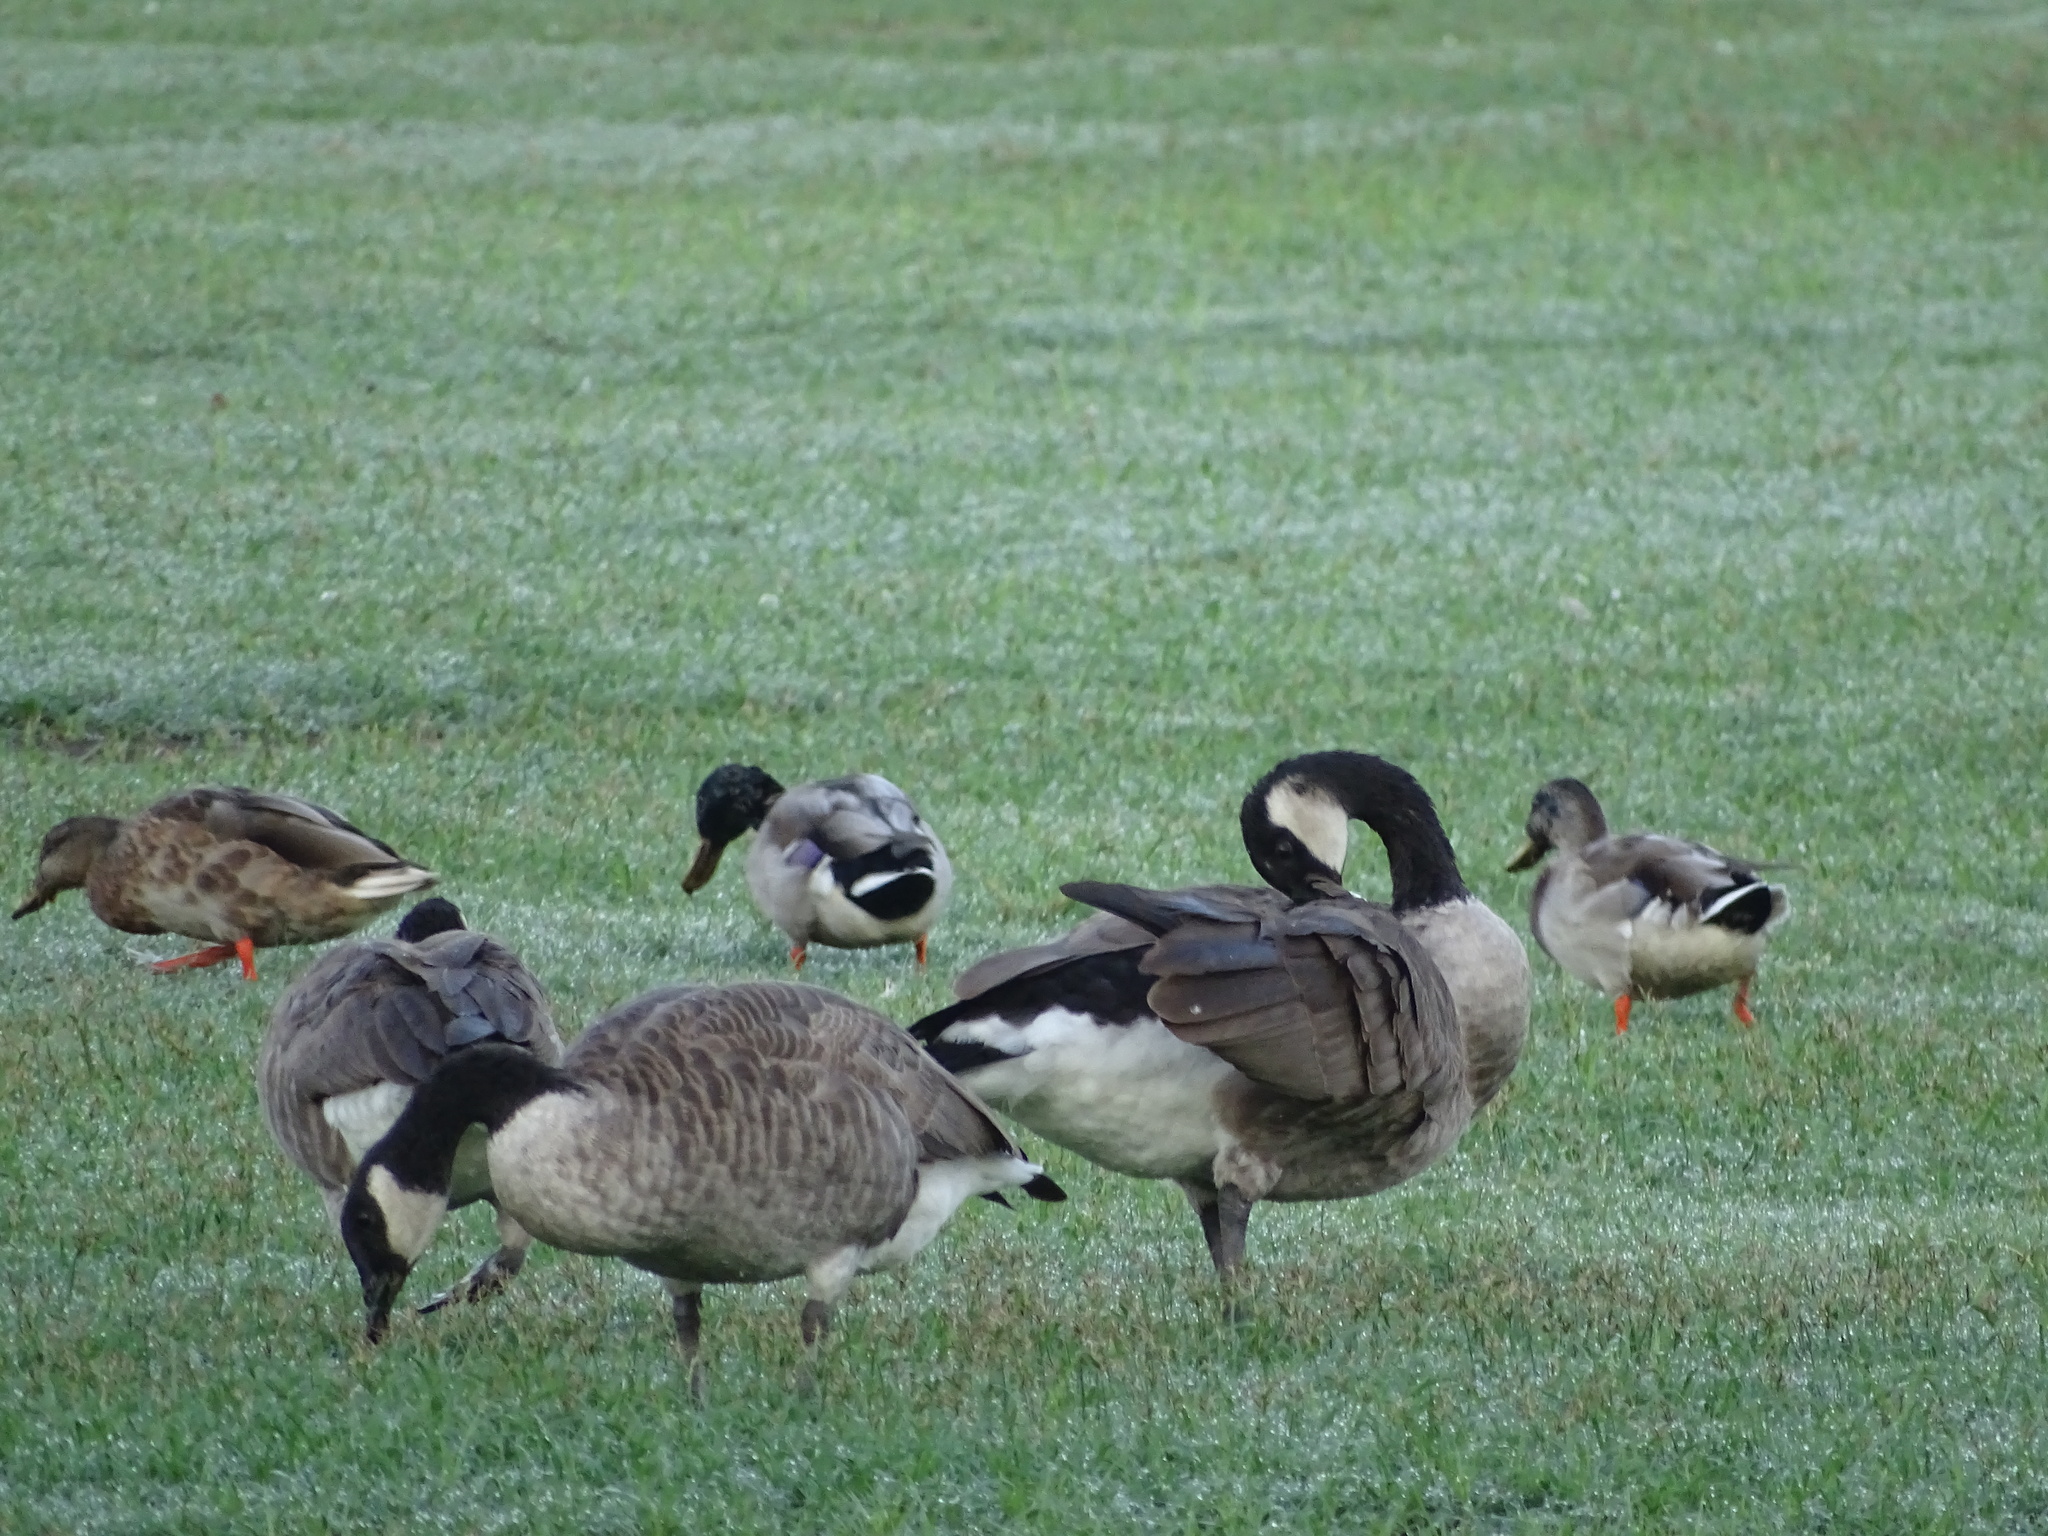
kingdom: Animalia
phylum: Chordata
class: Aves
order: Anseriformes
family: Anatidae
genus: Branta
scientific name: Branta canadensis
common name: Canada goose
